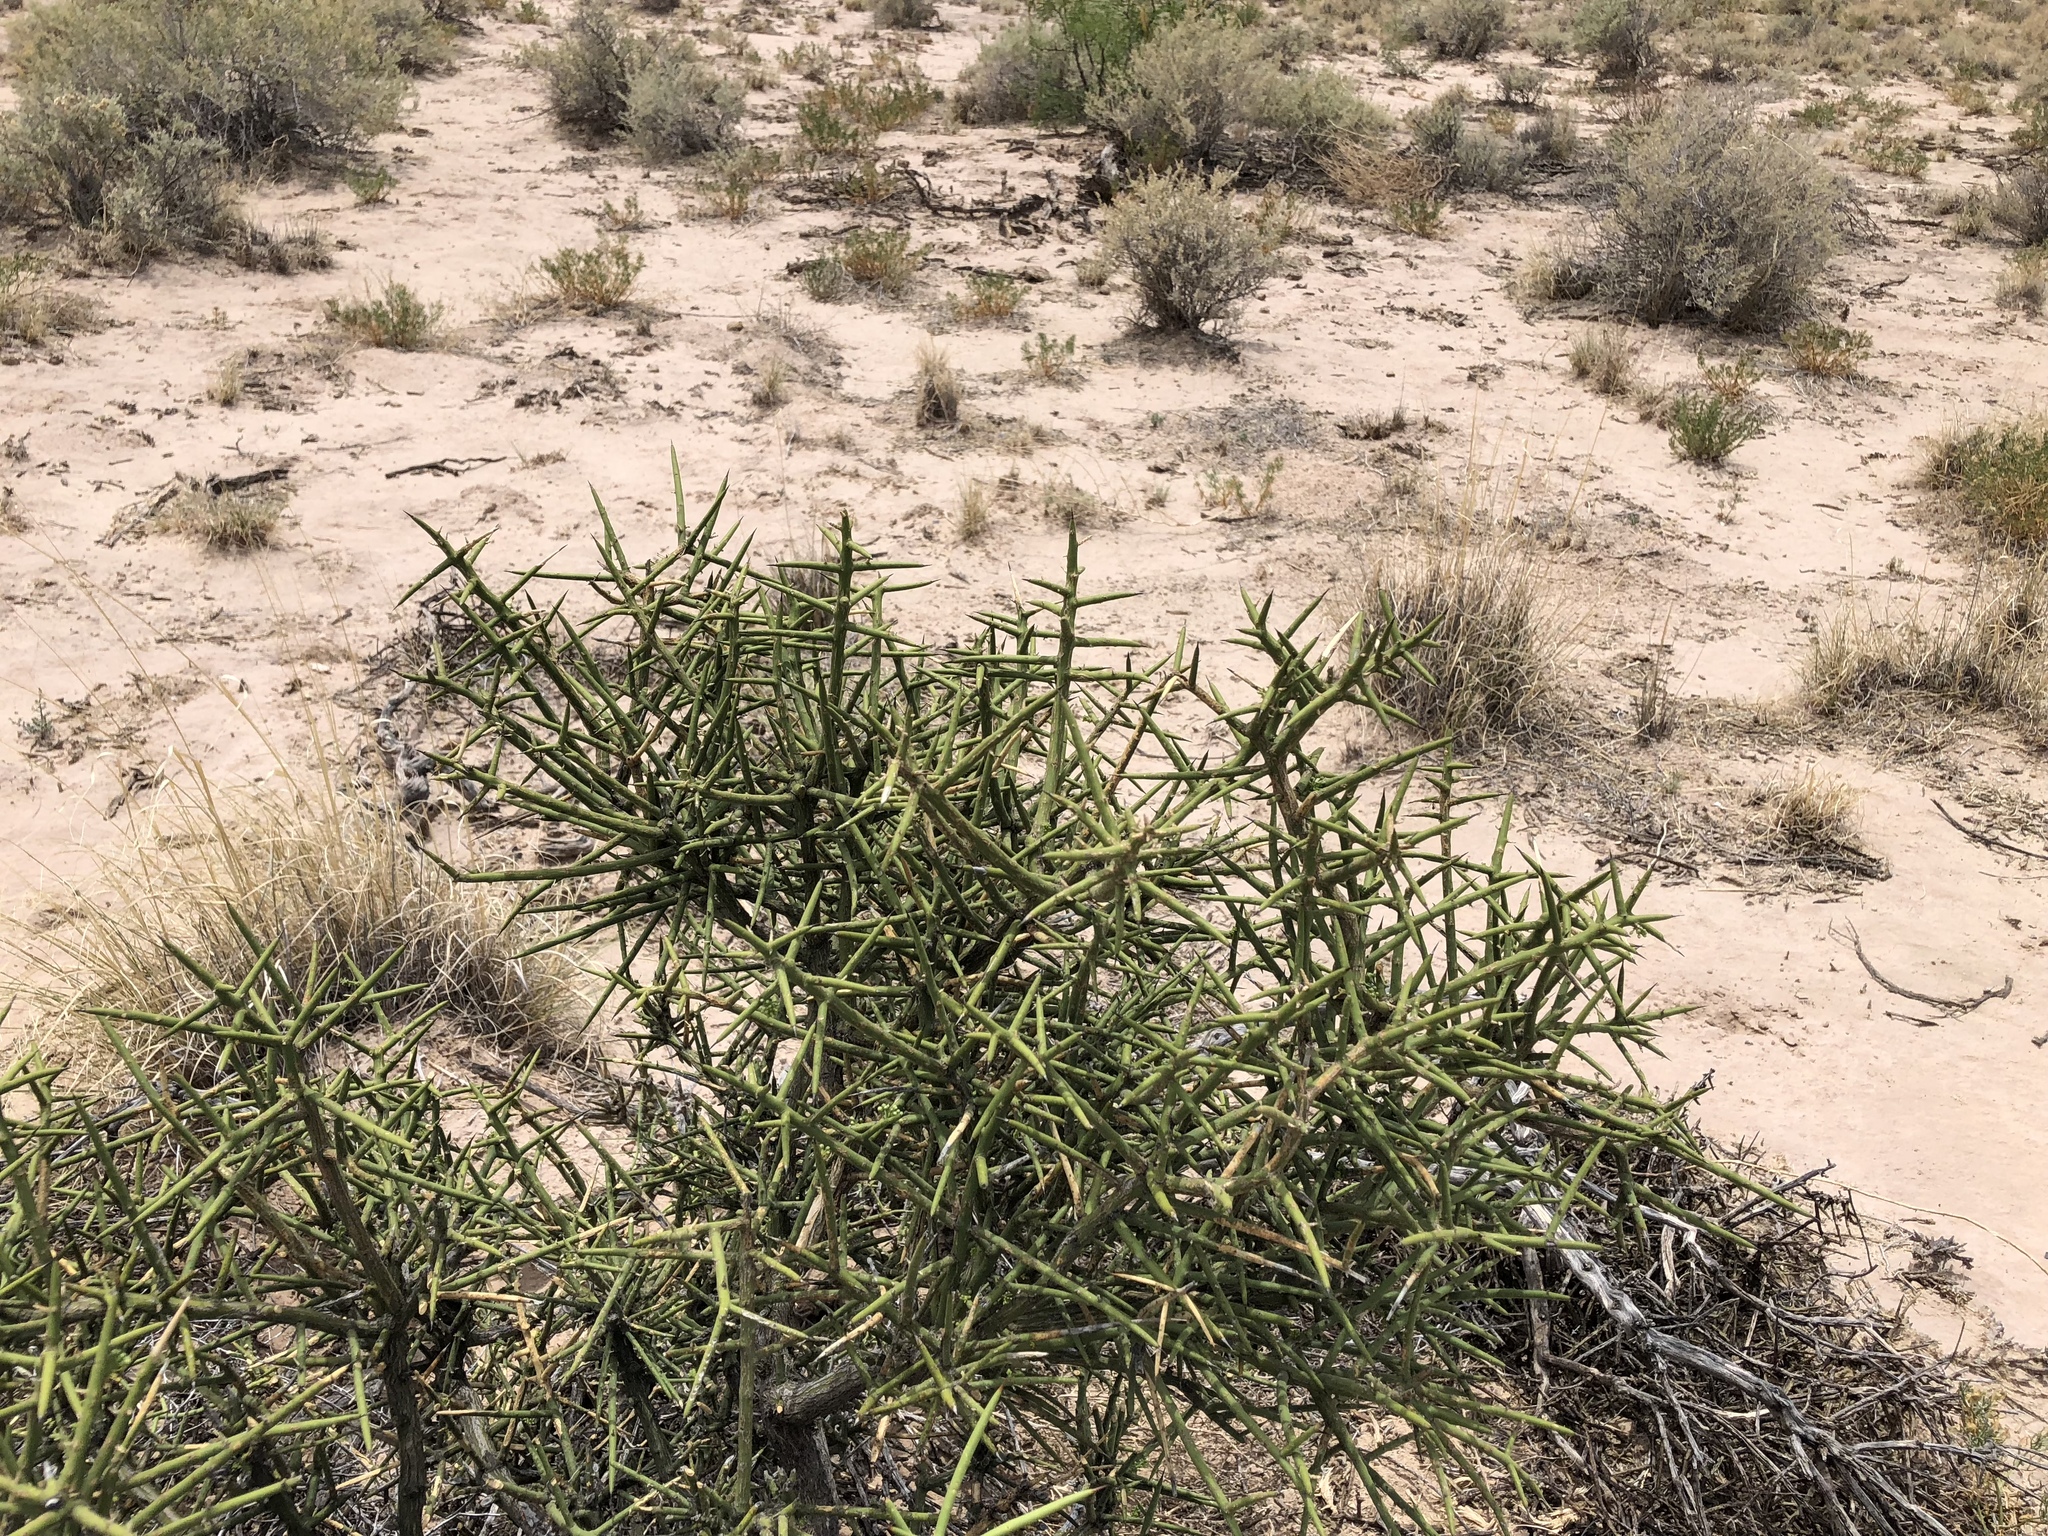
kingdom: Plantae
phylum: Tracheophyta
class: Magnoliopsida
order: Brassicales
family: Koeberliniaceae
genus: Koeberlinia
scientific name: Koeberlinia spinosa
